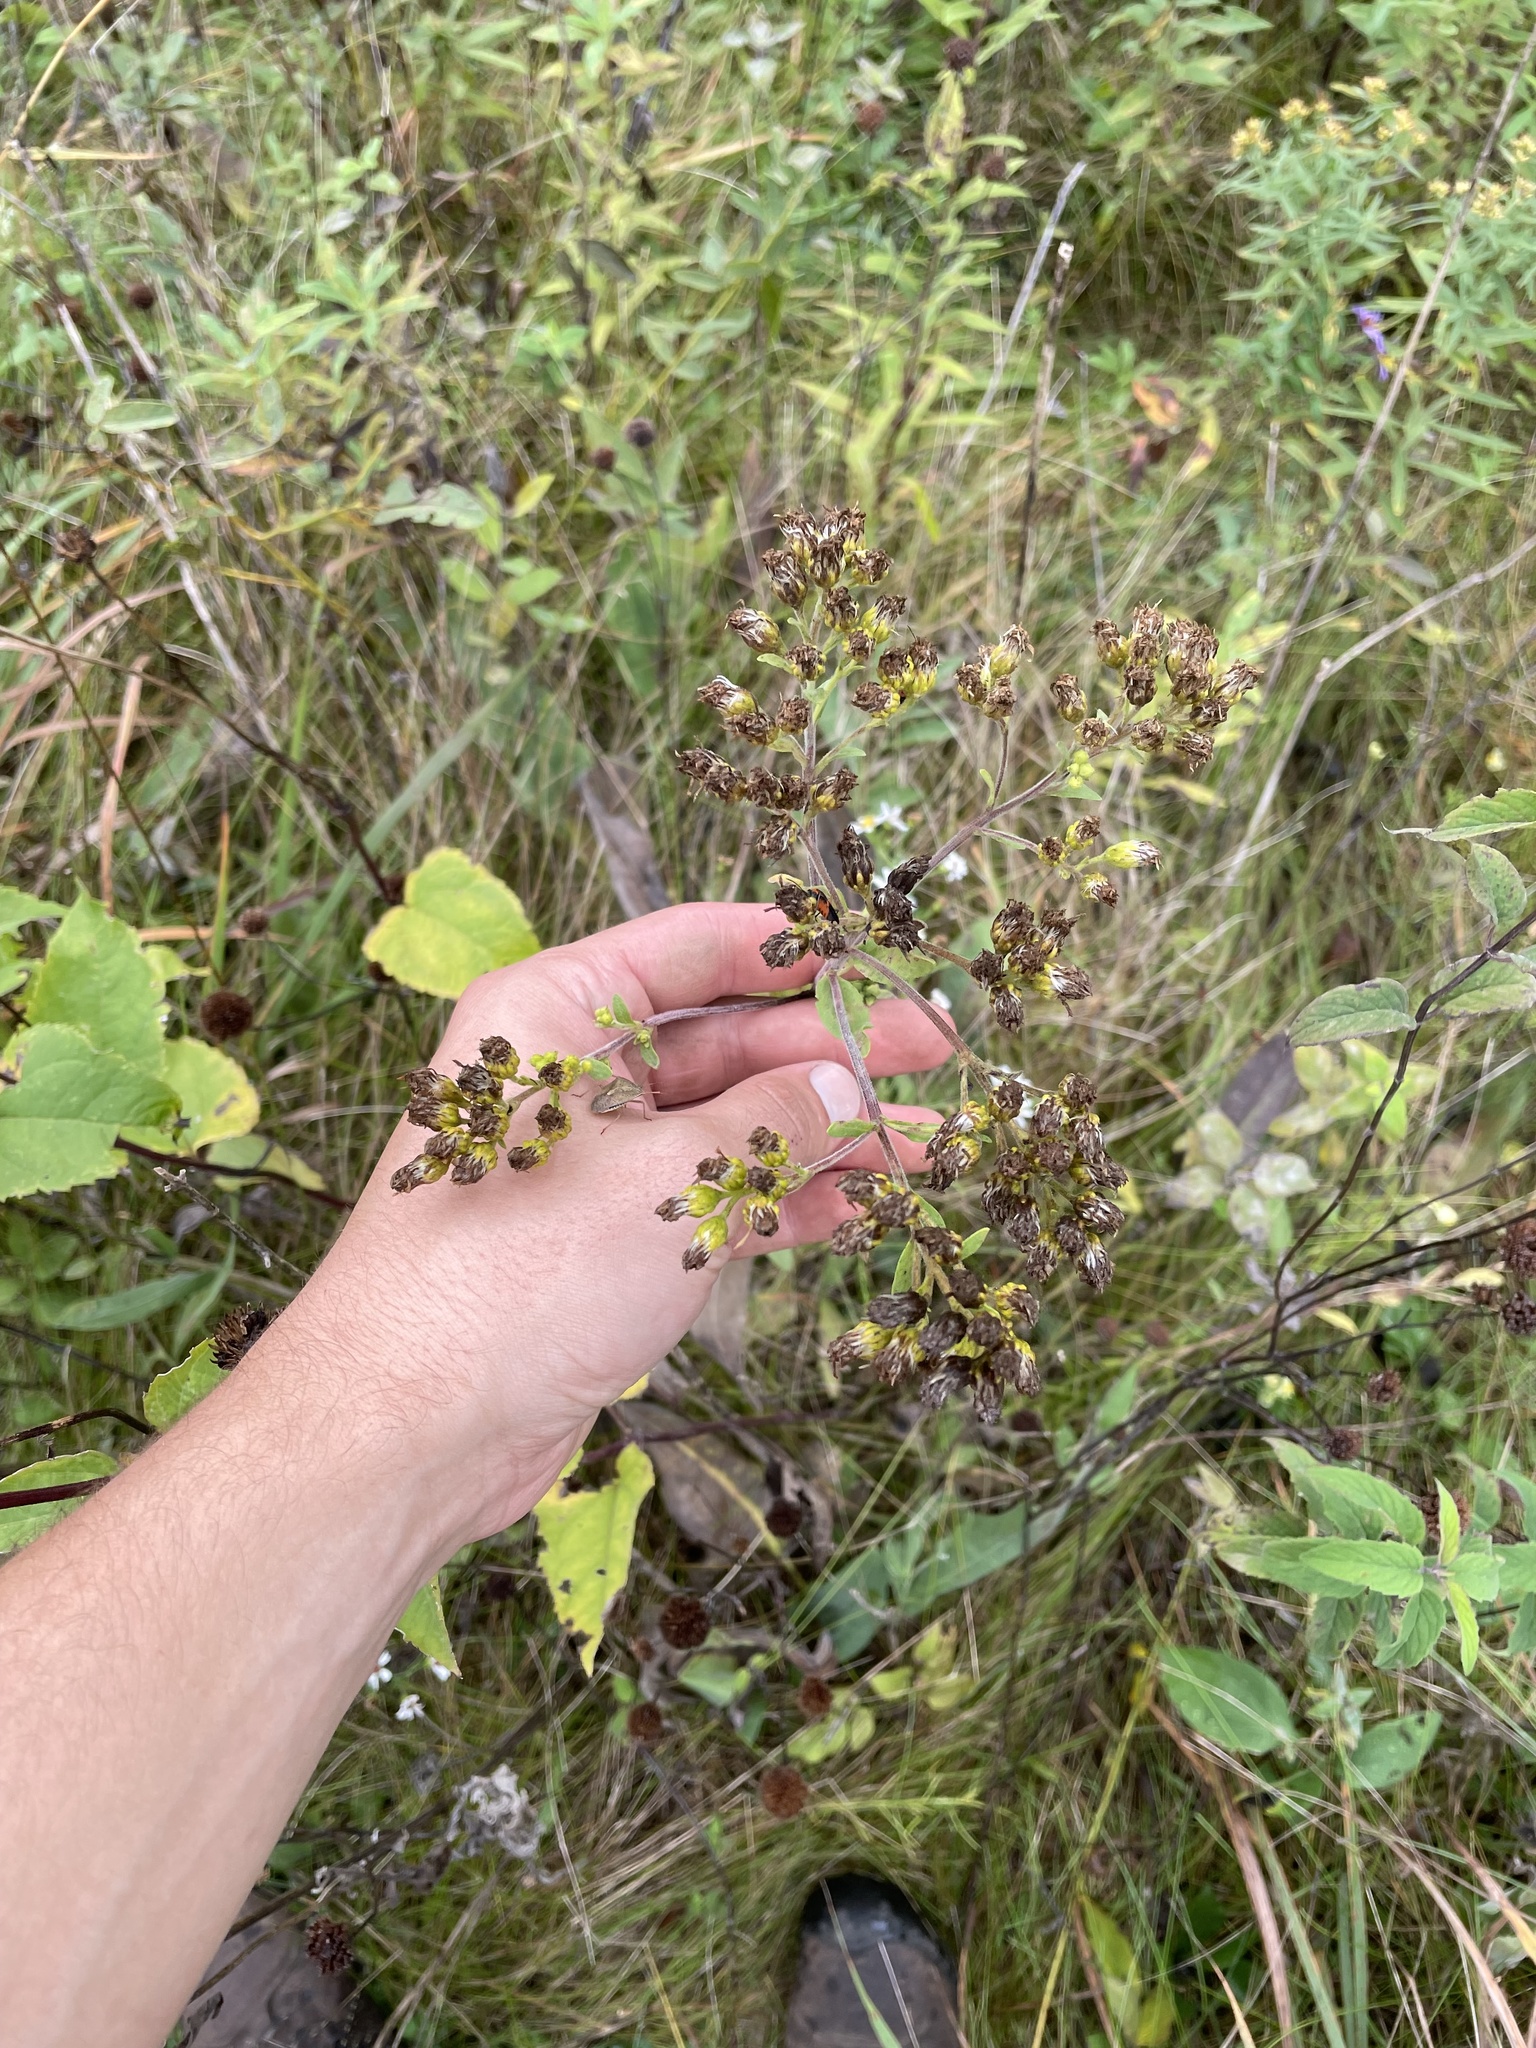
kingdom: Plantae
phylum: Tracheophyta
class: Magnoliopsida
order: Asterales
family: Asteraceae
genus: Solidago
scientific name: Solidago rigida
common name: Rigid goldenrod
